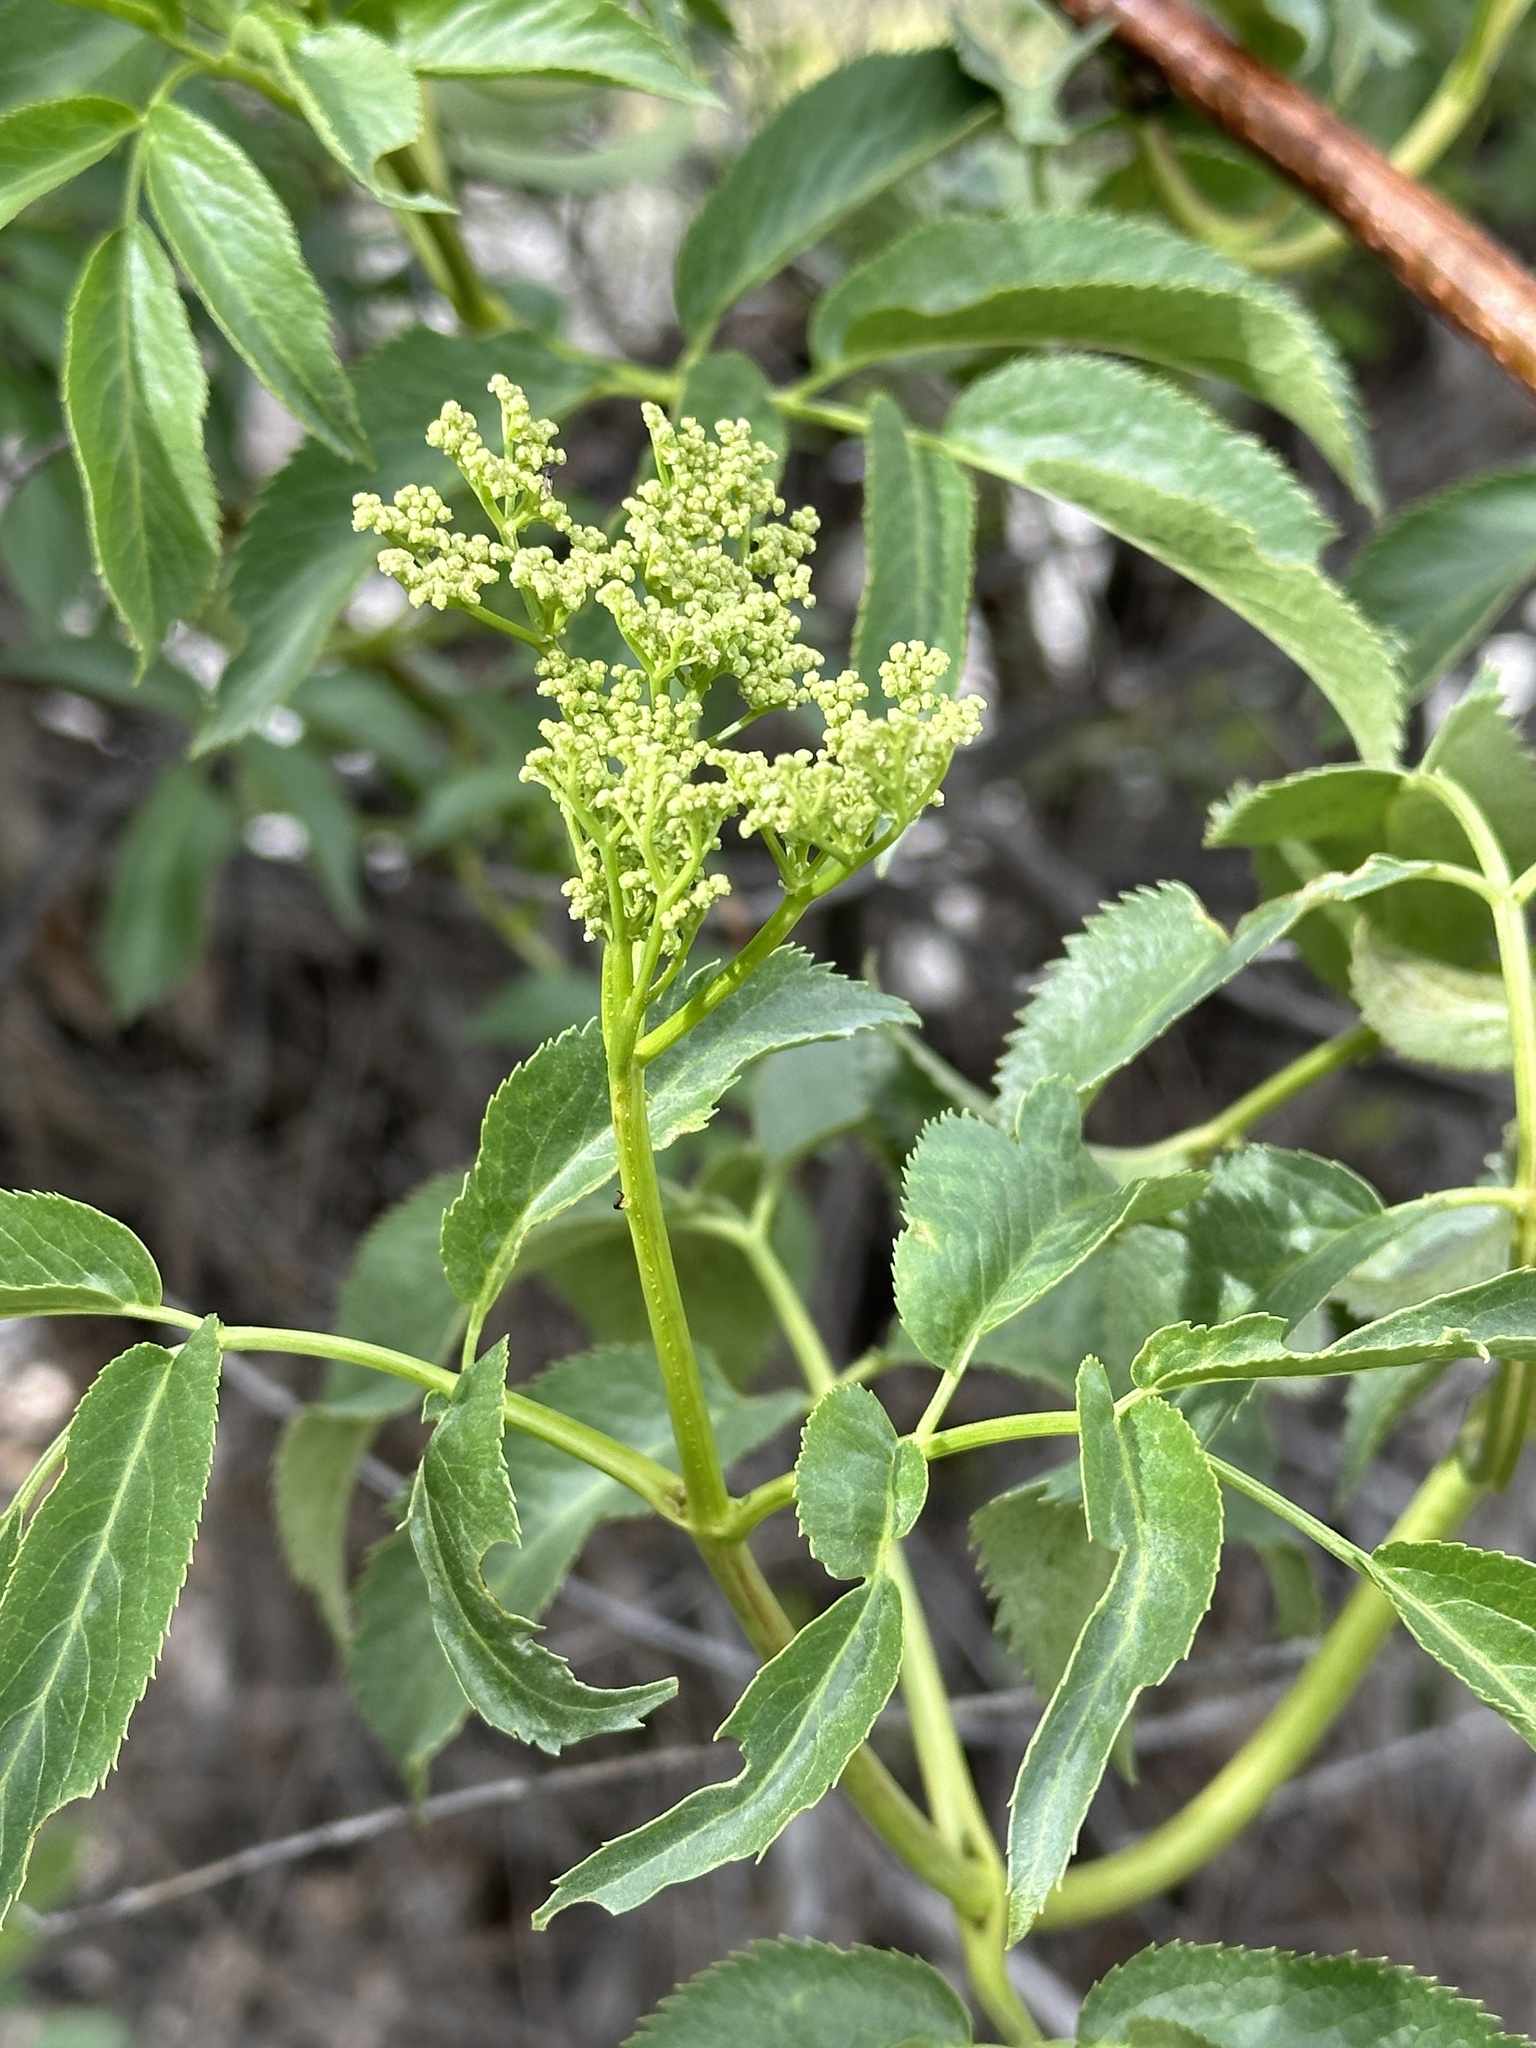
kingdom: Plantae
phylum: Tracheophyta
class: Magnoliopsida
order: Dipsacales
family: Viburnaceae
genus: Sambucus
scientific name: Sambucus cerulea
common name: Blue elder
